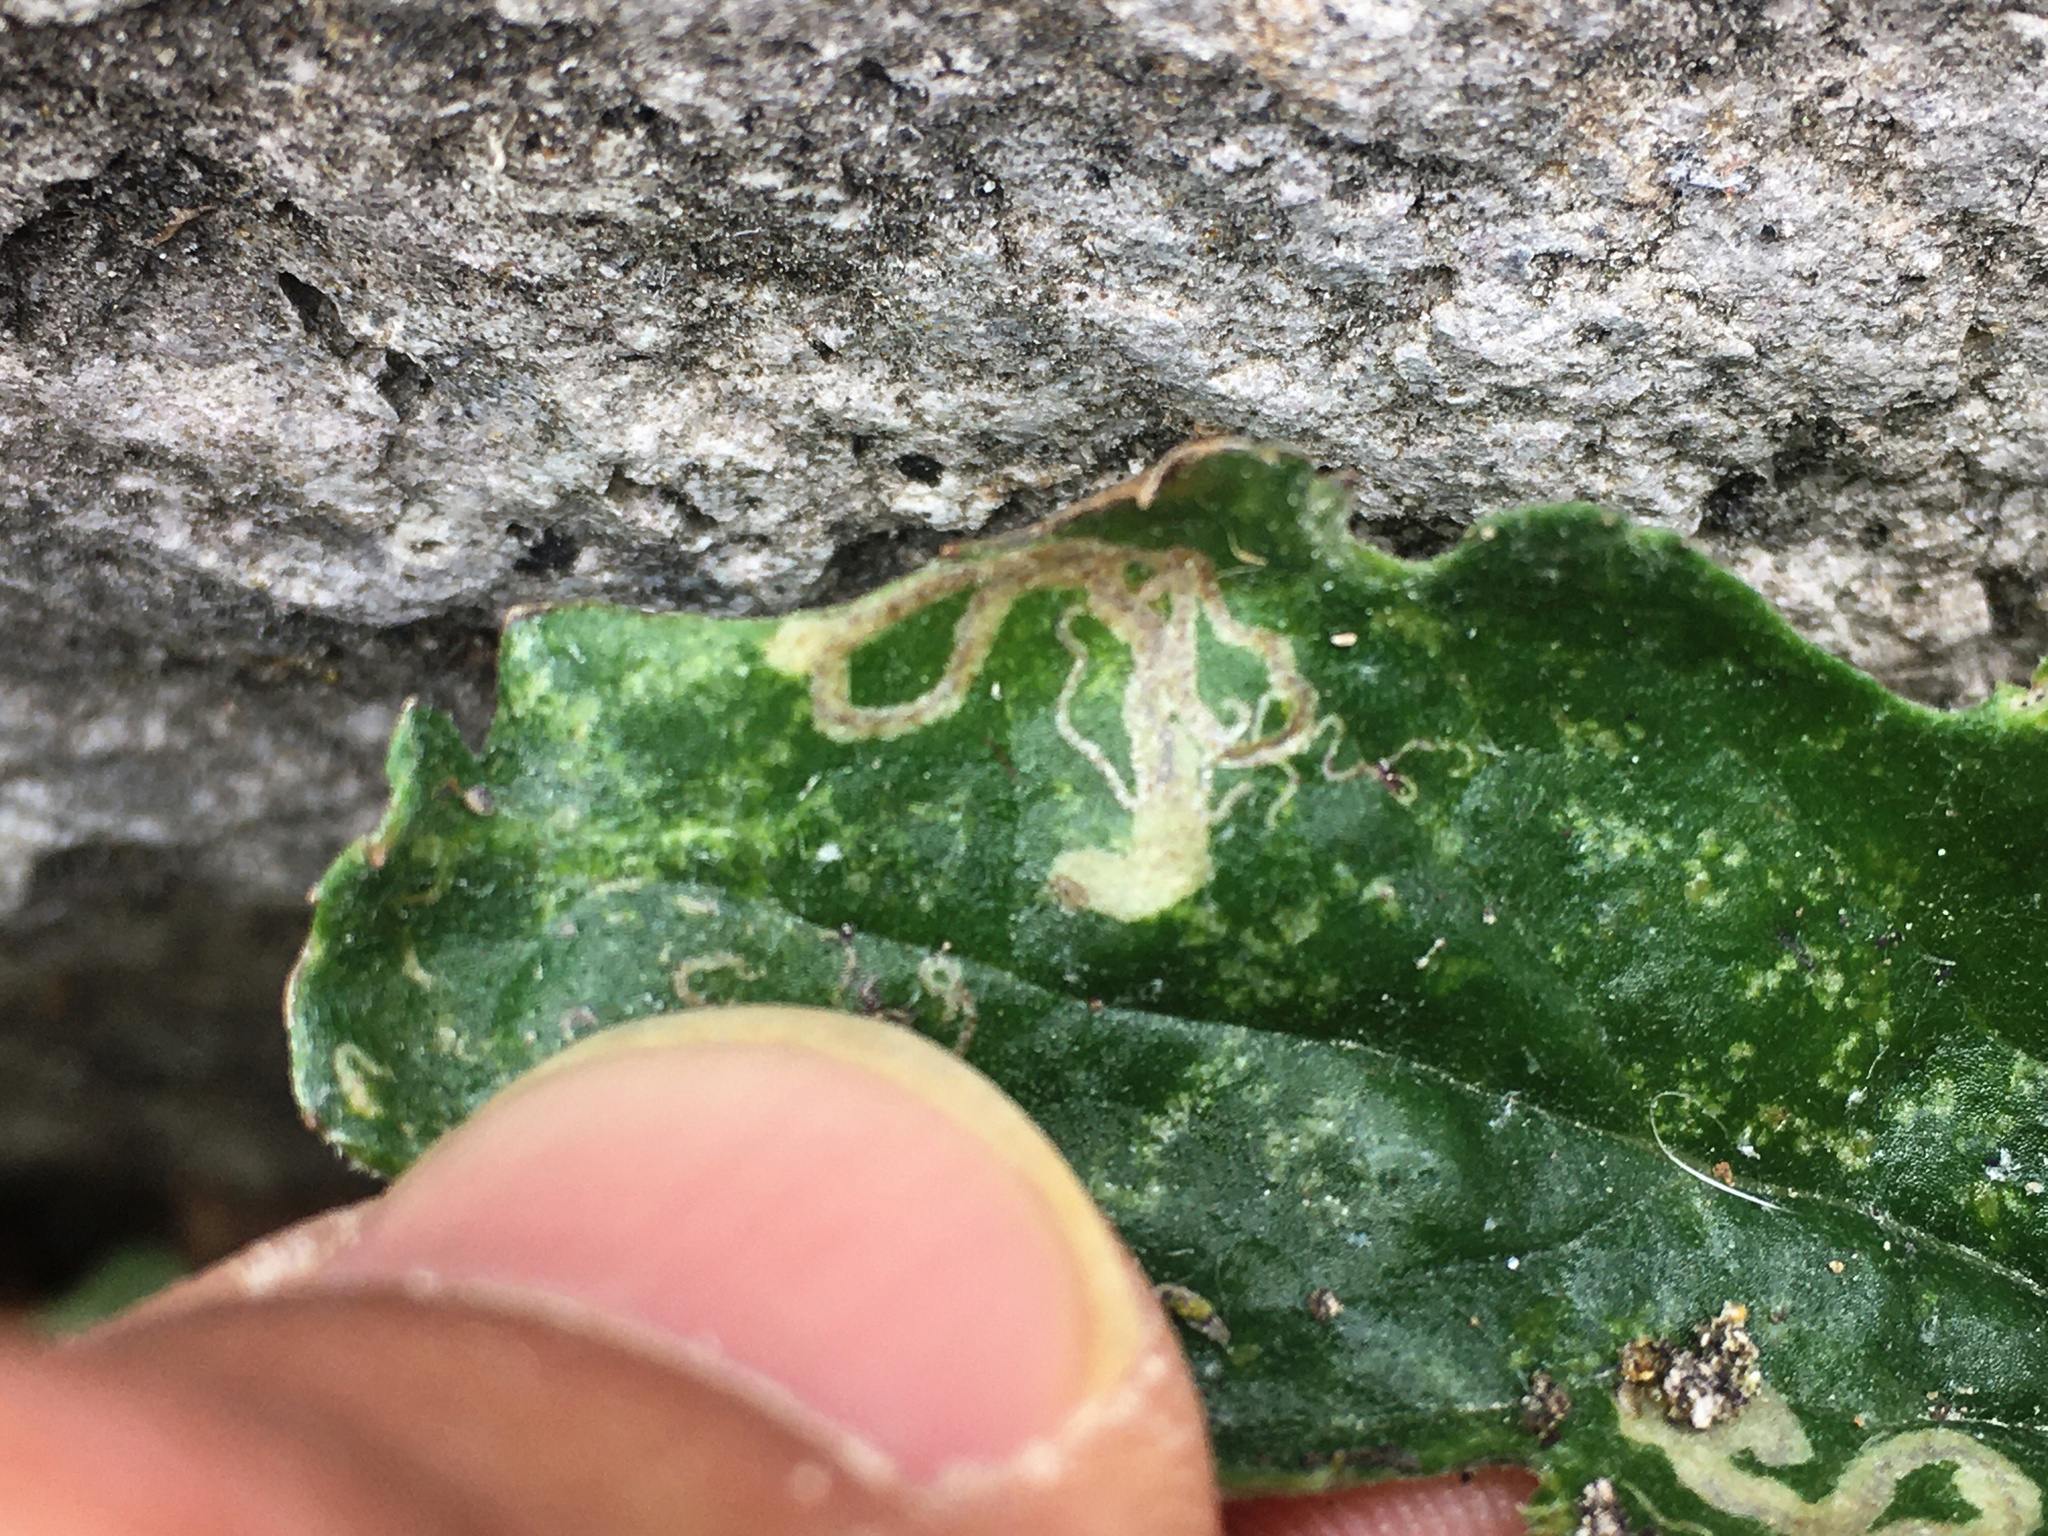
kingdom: Animalia
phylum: Arthropoda
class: Insecta
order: Lepidoptera
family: Nepticulidae
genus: Stigmella
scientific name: Stigmella ogygia
